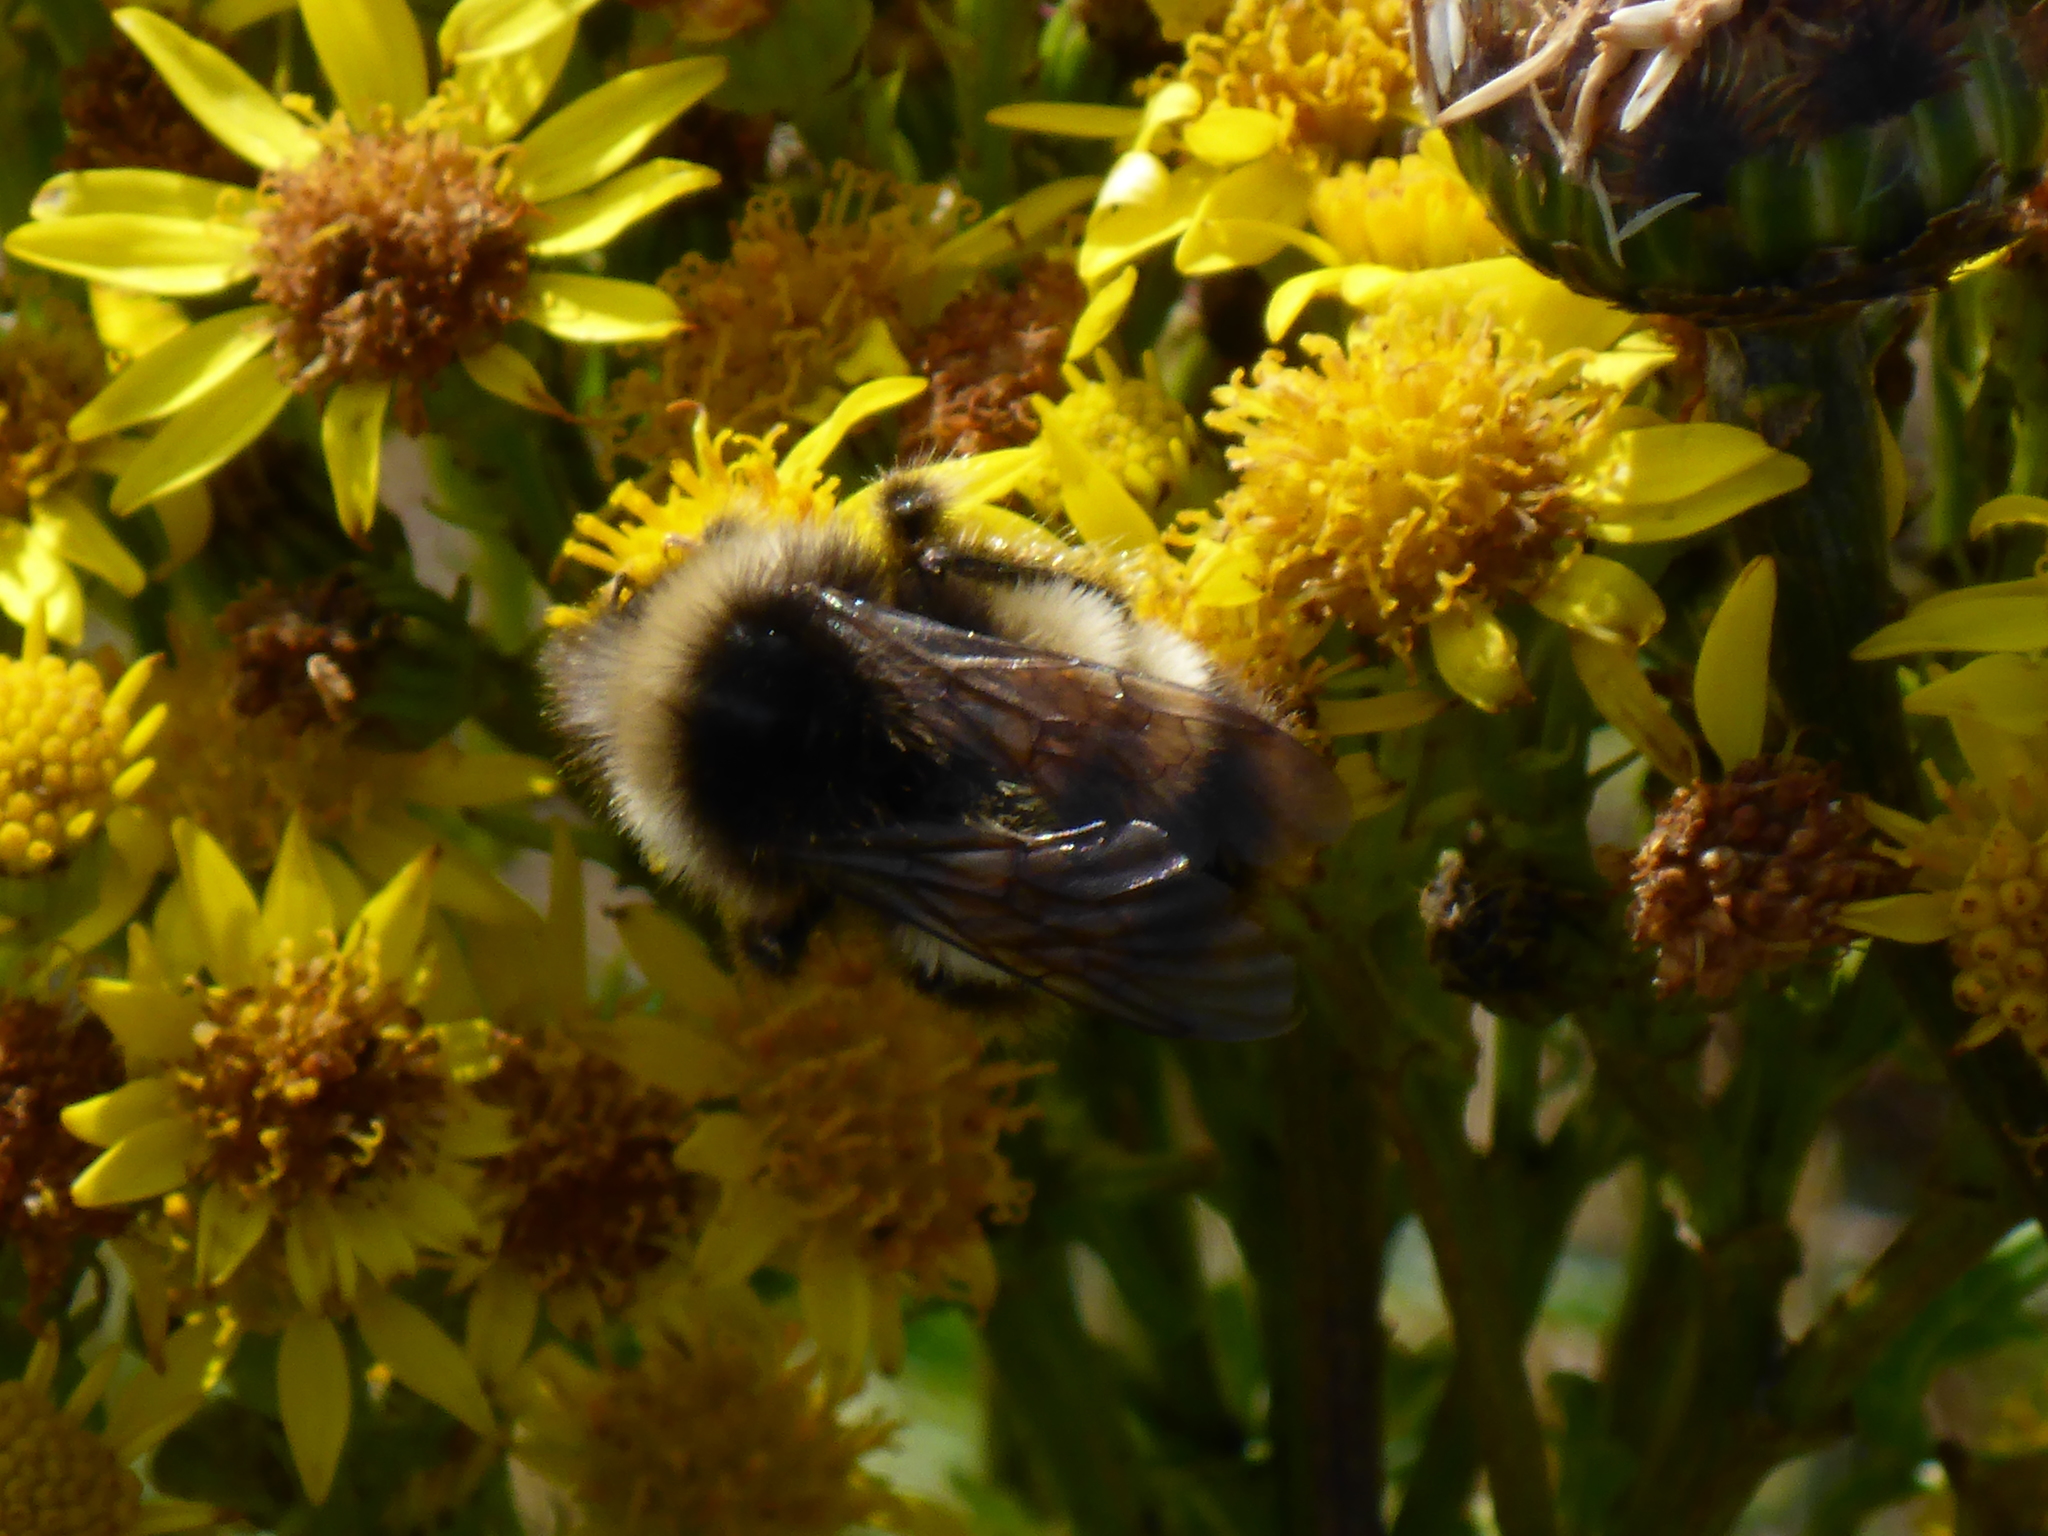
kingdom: Animalia
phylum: Arthropoda
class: Insecta
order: Hymenoptera
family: Apidae
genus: Bombus
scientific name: Bombus terricola
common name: Yellow-banded bumble bee
